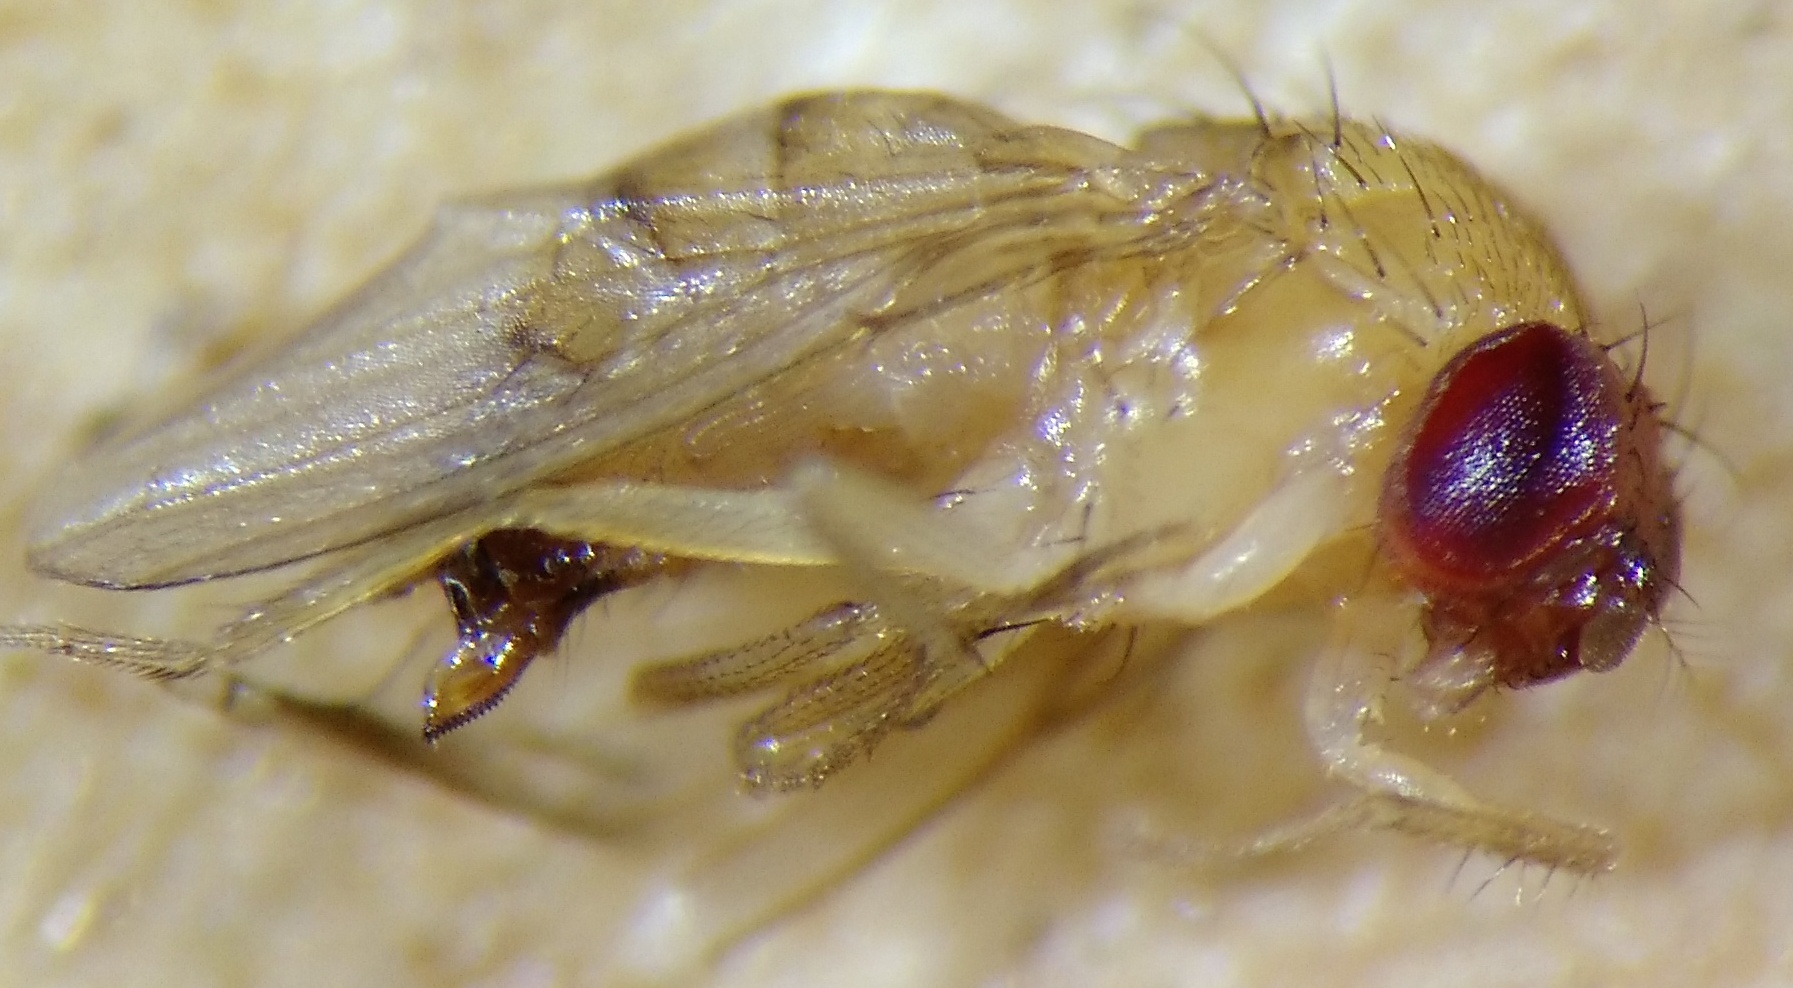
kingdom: Animalia
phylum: Arthropoda
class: Insecta
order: Diptera
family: Drosophilidae
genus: Drosophila
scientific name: Drosophila suzukii
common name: Spotted-wing drosophila
